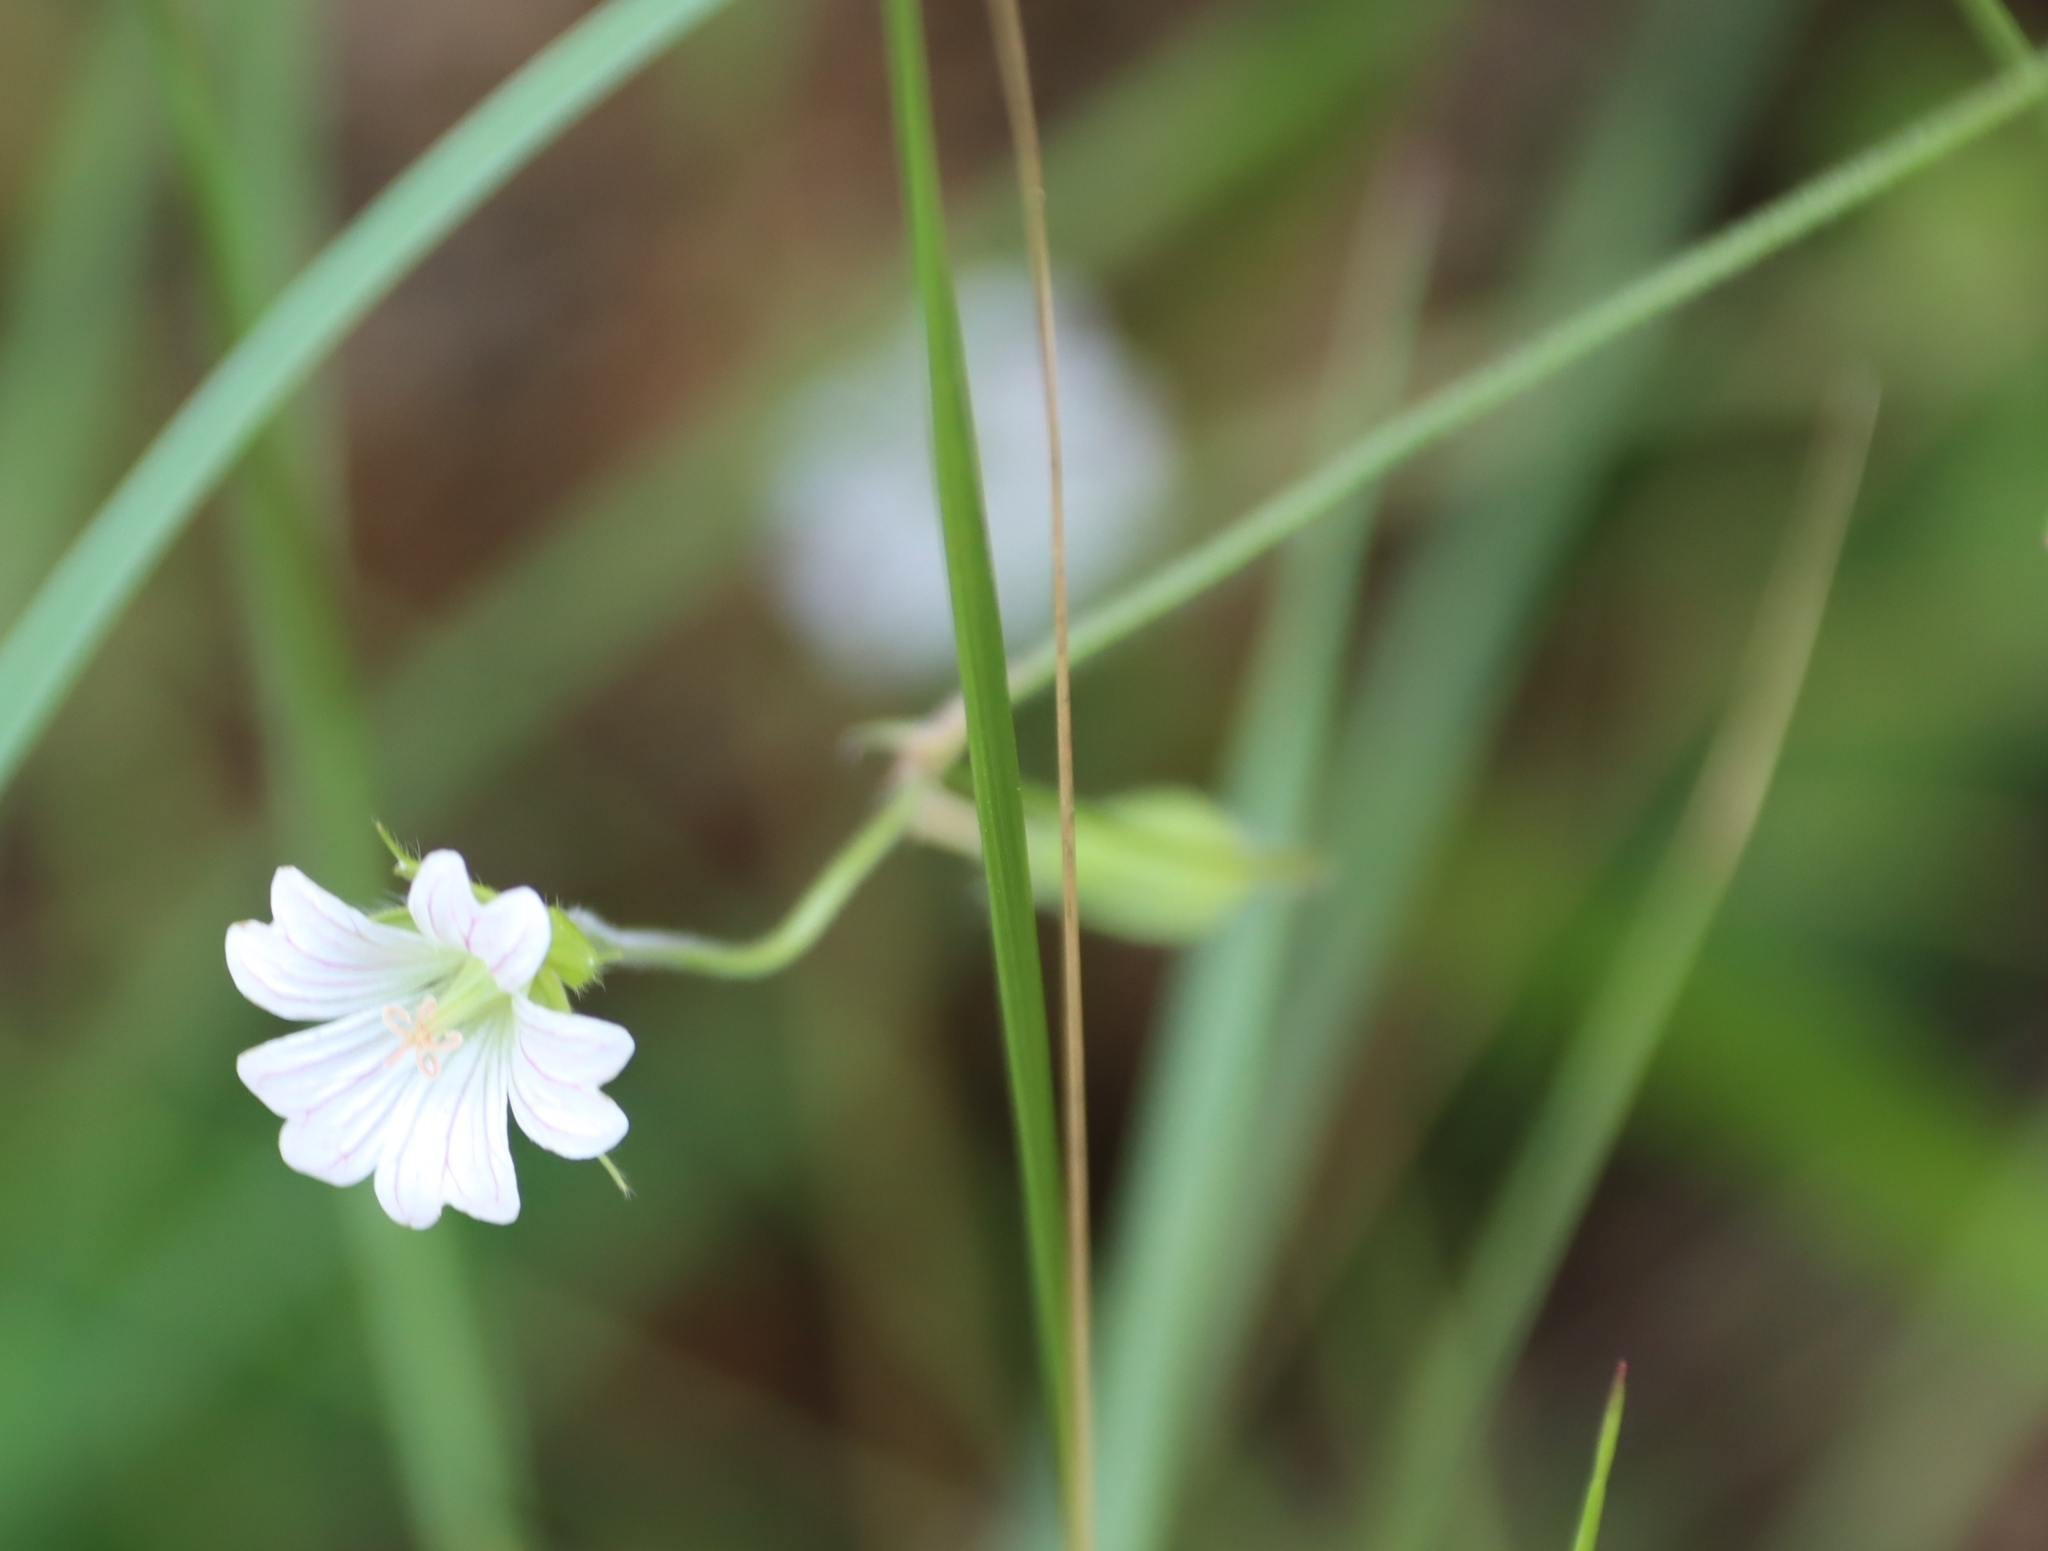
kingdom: Plantae
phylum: Tracheophyta
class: Magnoliopsida
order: Geraniales
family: Geraniaceae
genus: Geranium
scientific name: Geranium wakkerstroomianum
